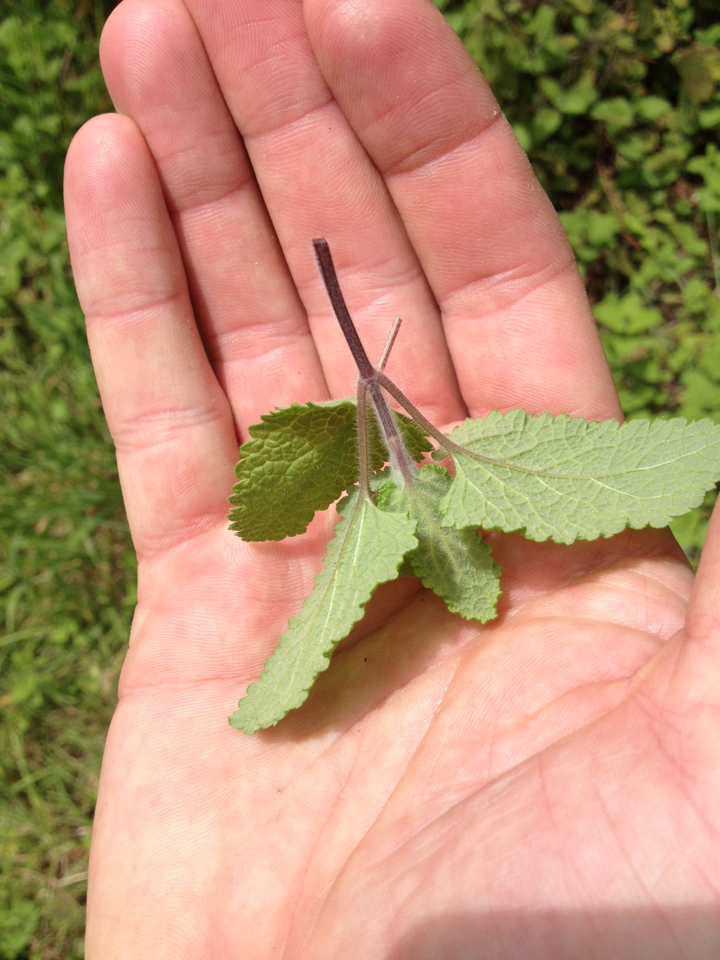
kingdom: Plantae
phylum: Tracheophyta
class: Magnoliopsida
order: Lamiales
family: Lamiaceae
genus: Mentha
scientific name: Mentha suaveolens
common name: Apple mint
